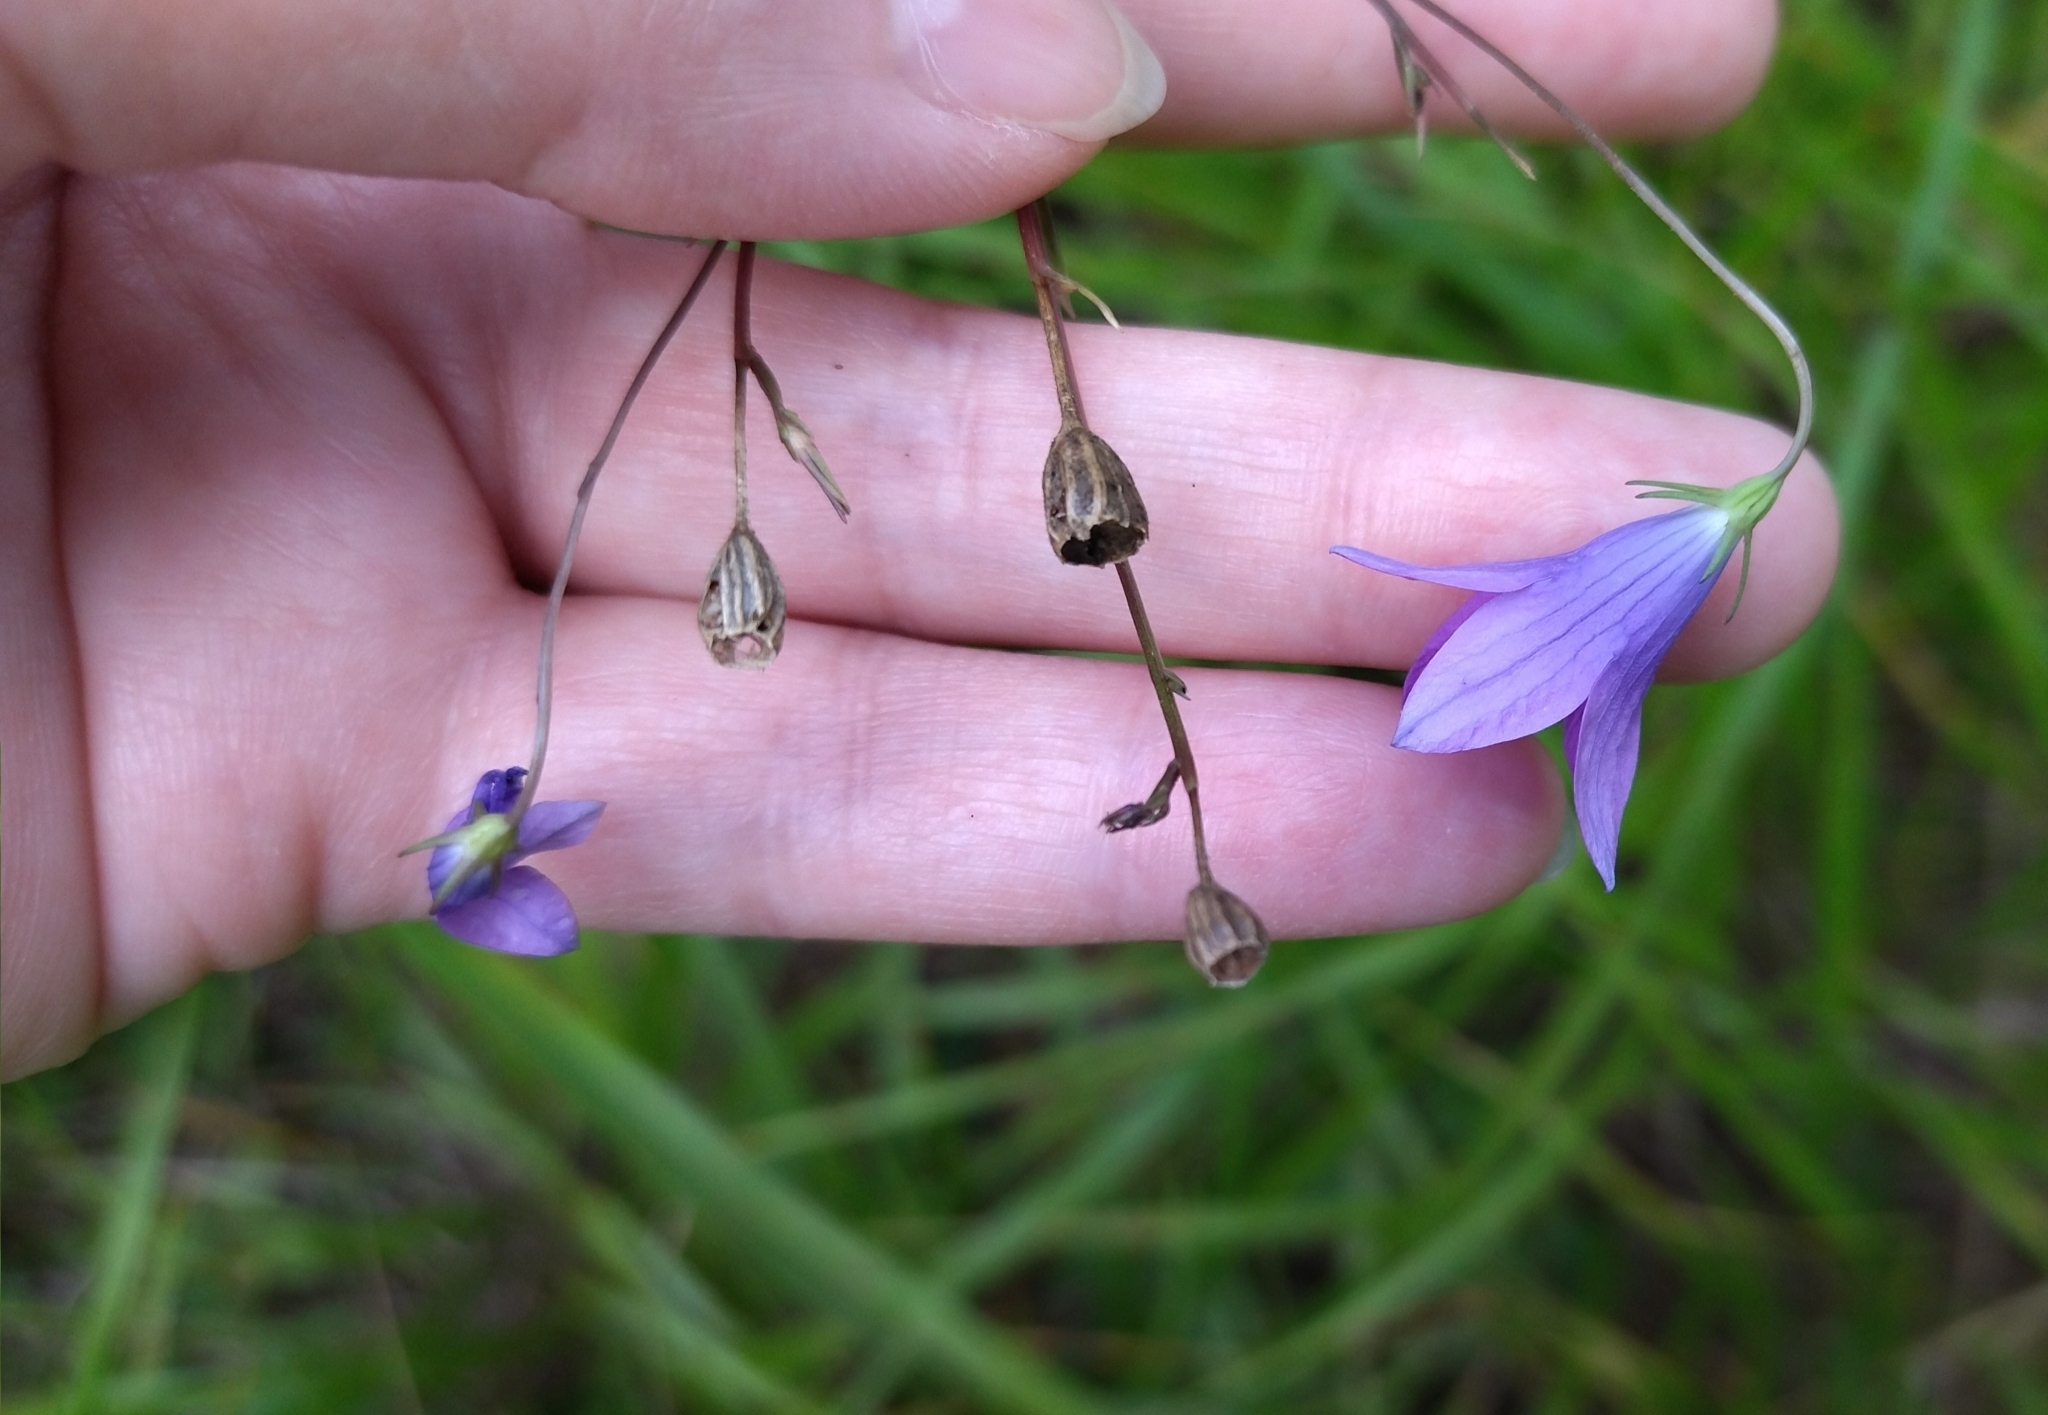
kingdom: Plantae
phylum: Tracheophyta
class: Magnoliopsida
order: Asterales
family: Campanulaceae
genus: Campanula
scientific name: Campanula patula
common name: Spreading bellflower
